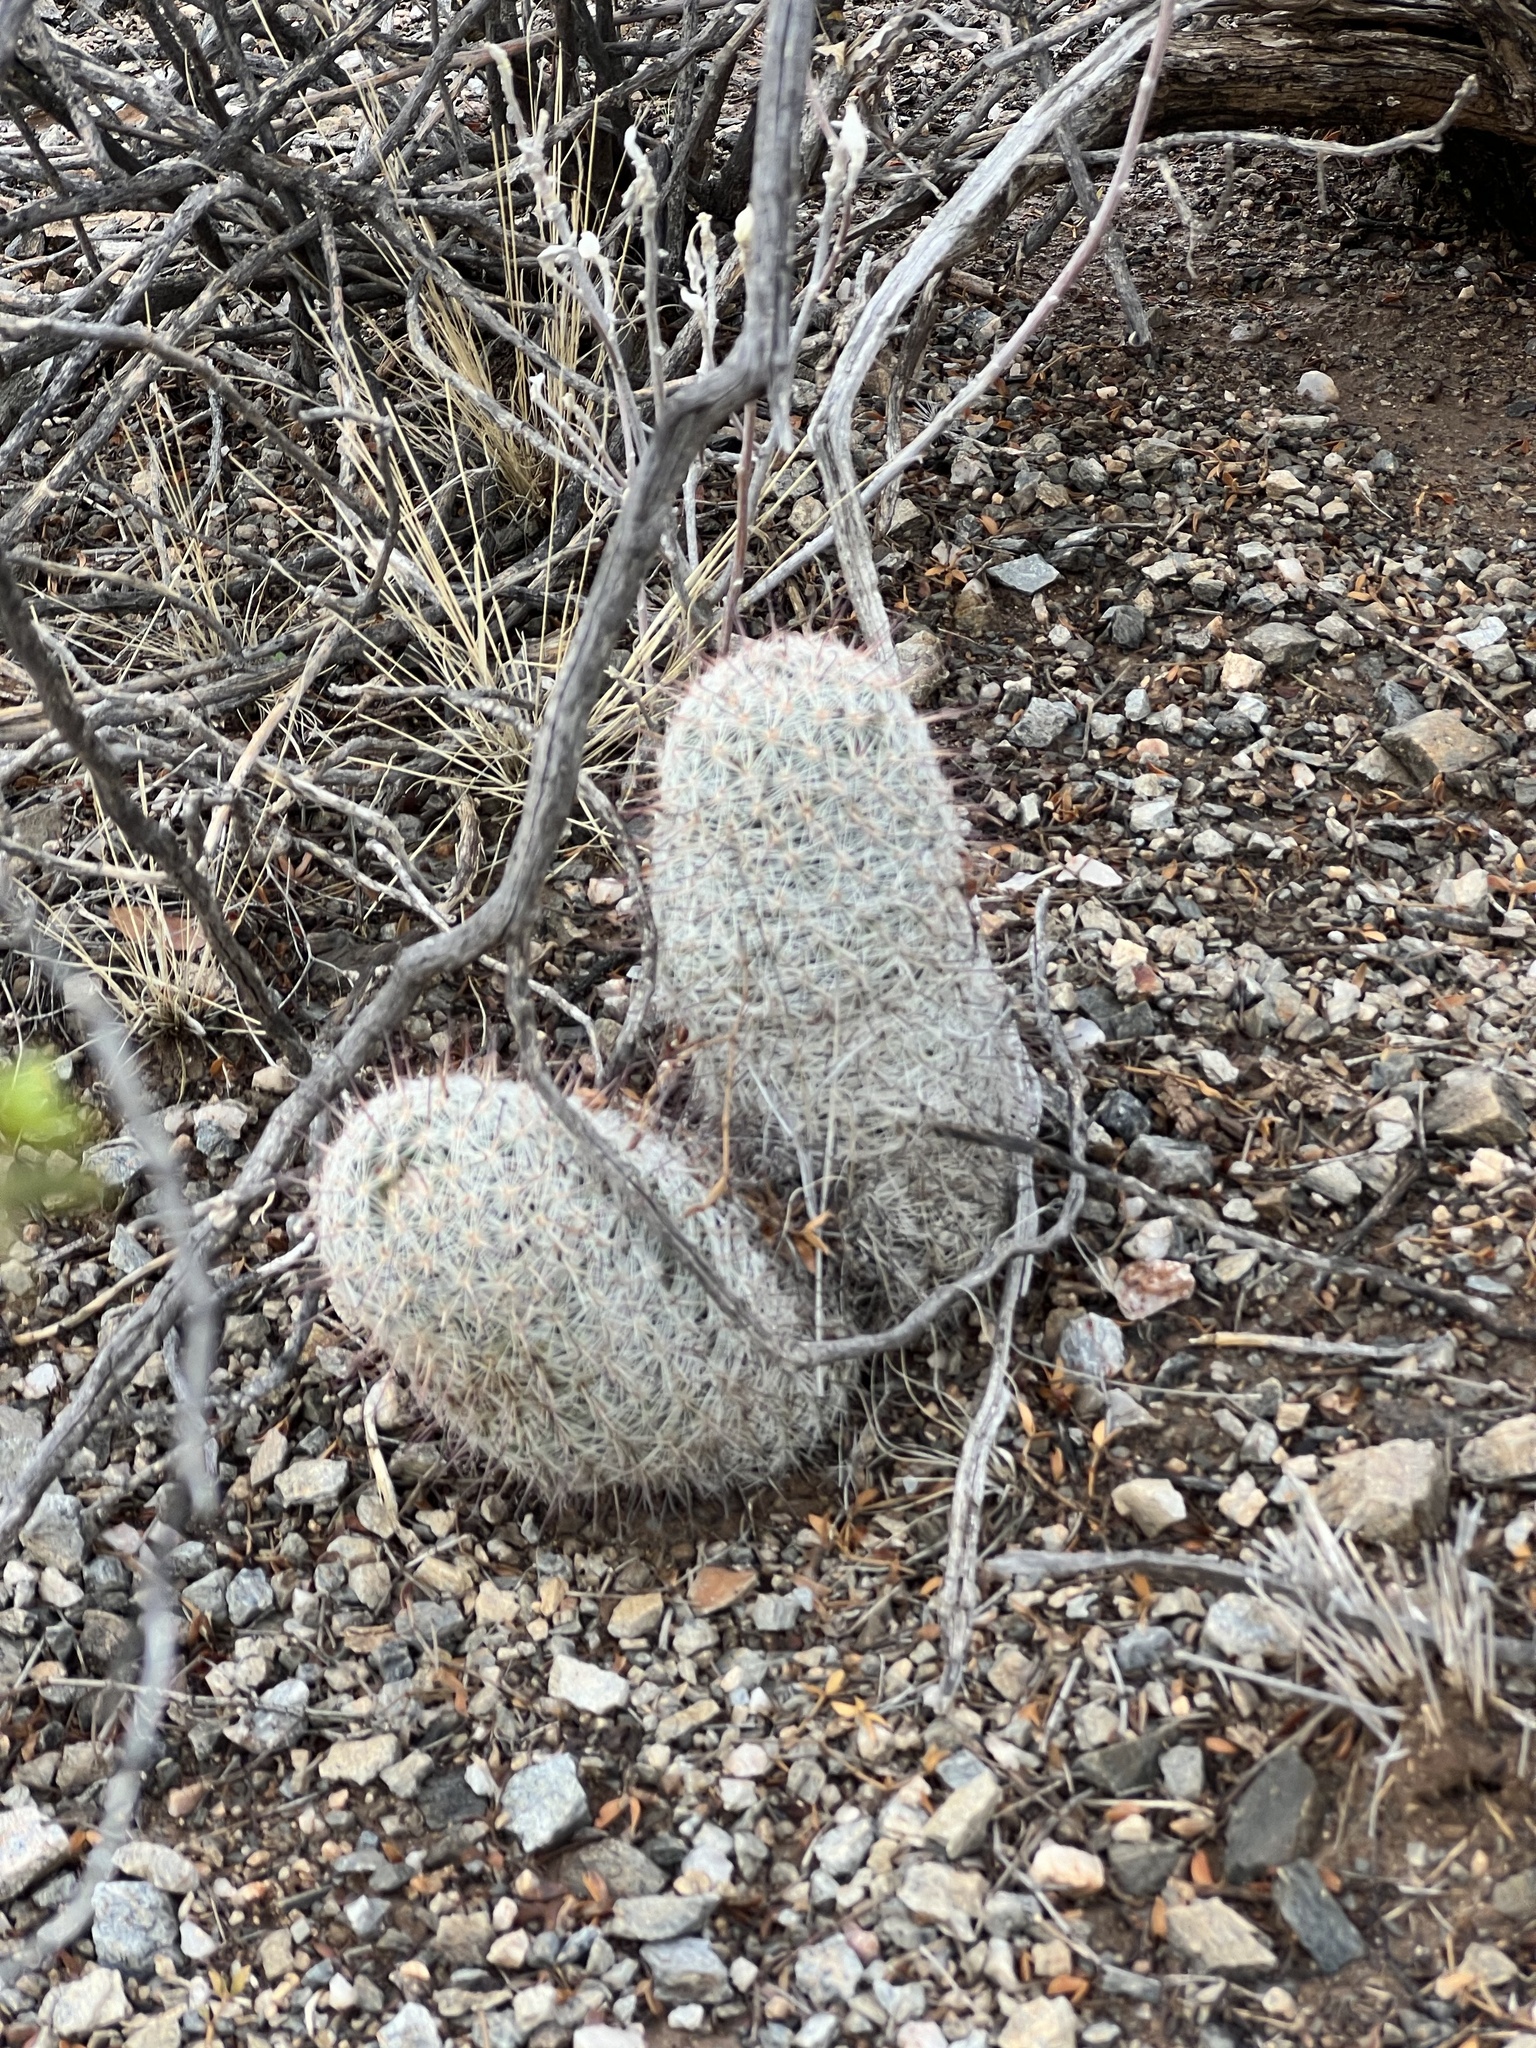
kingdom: Plantae
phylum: Tracheophyta
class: Magnoliopsida
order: Caryophyllales
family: Cactaceae
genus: Cochemiea
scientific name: Cochemiea grahamii
